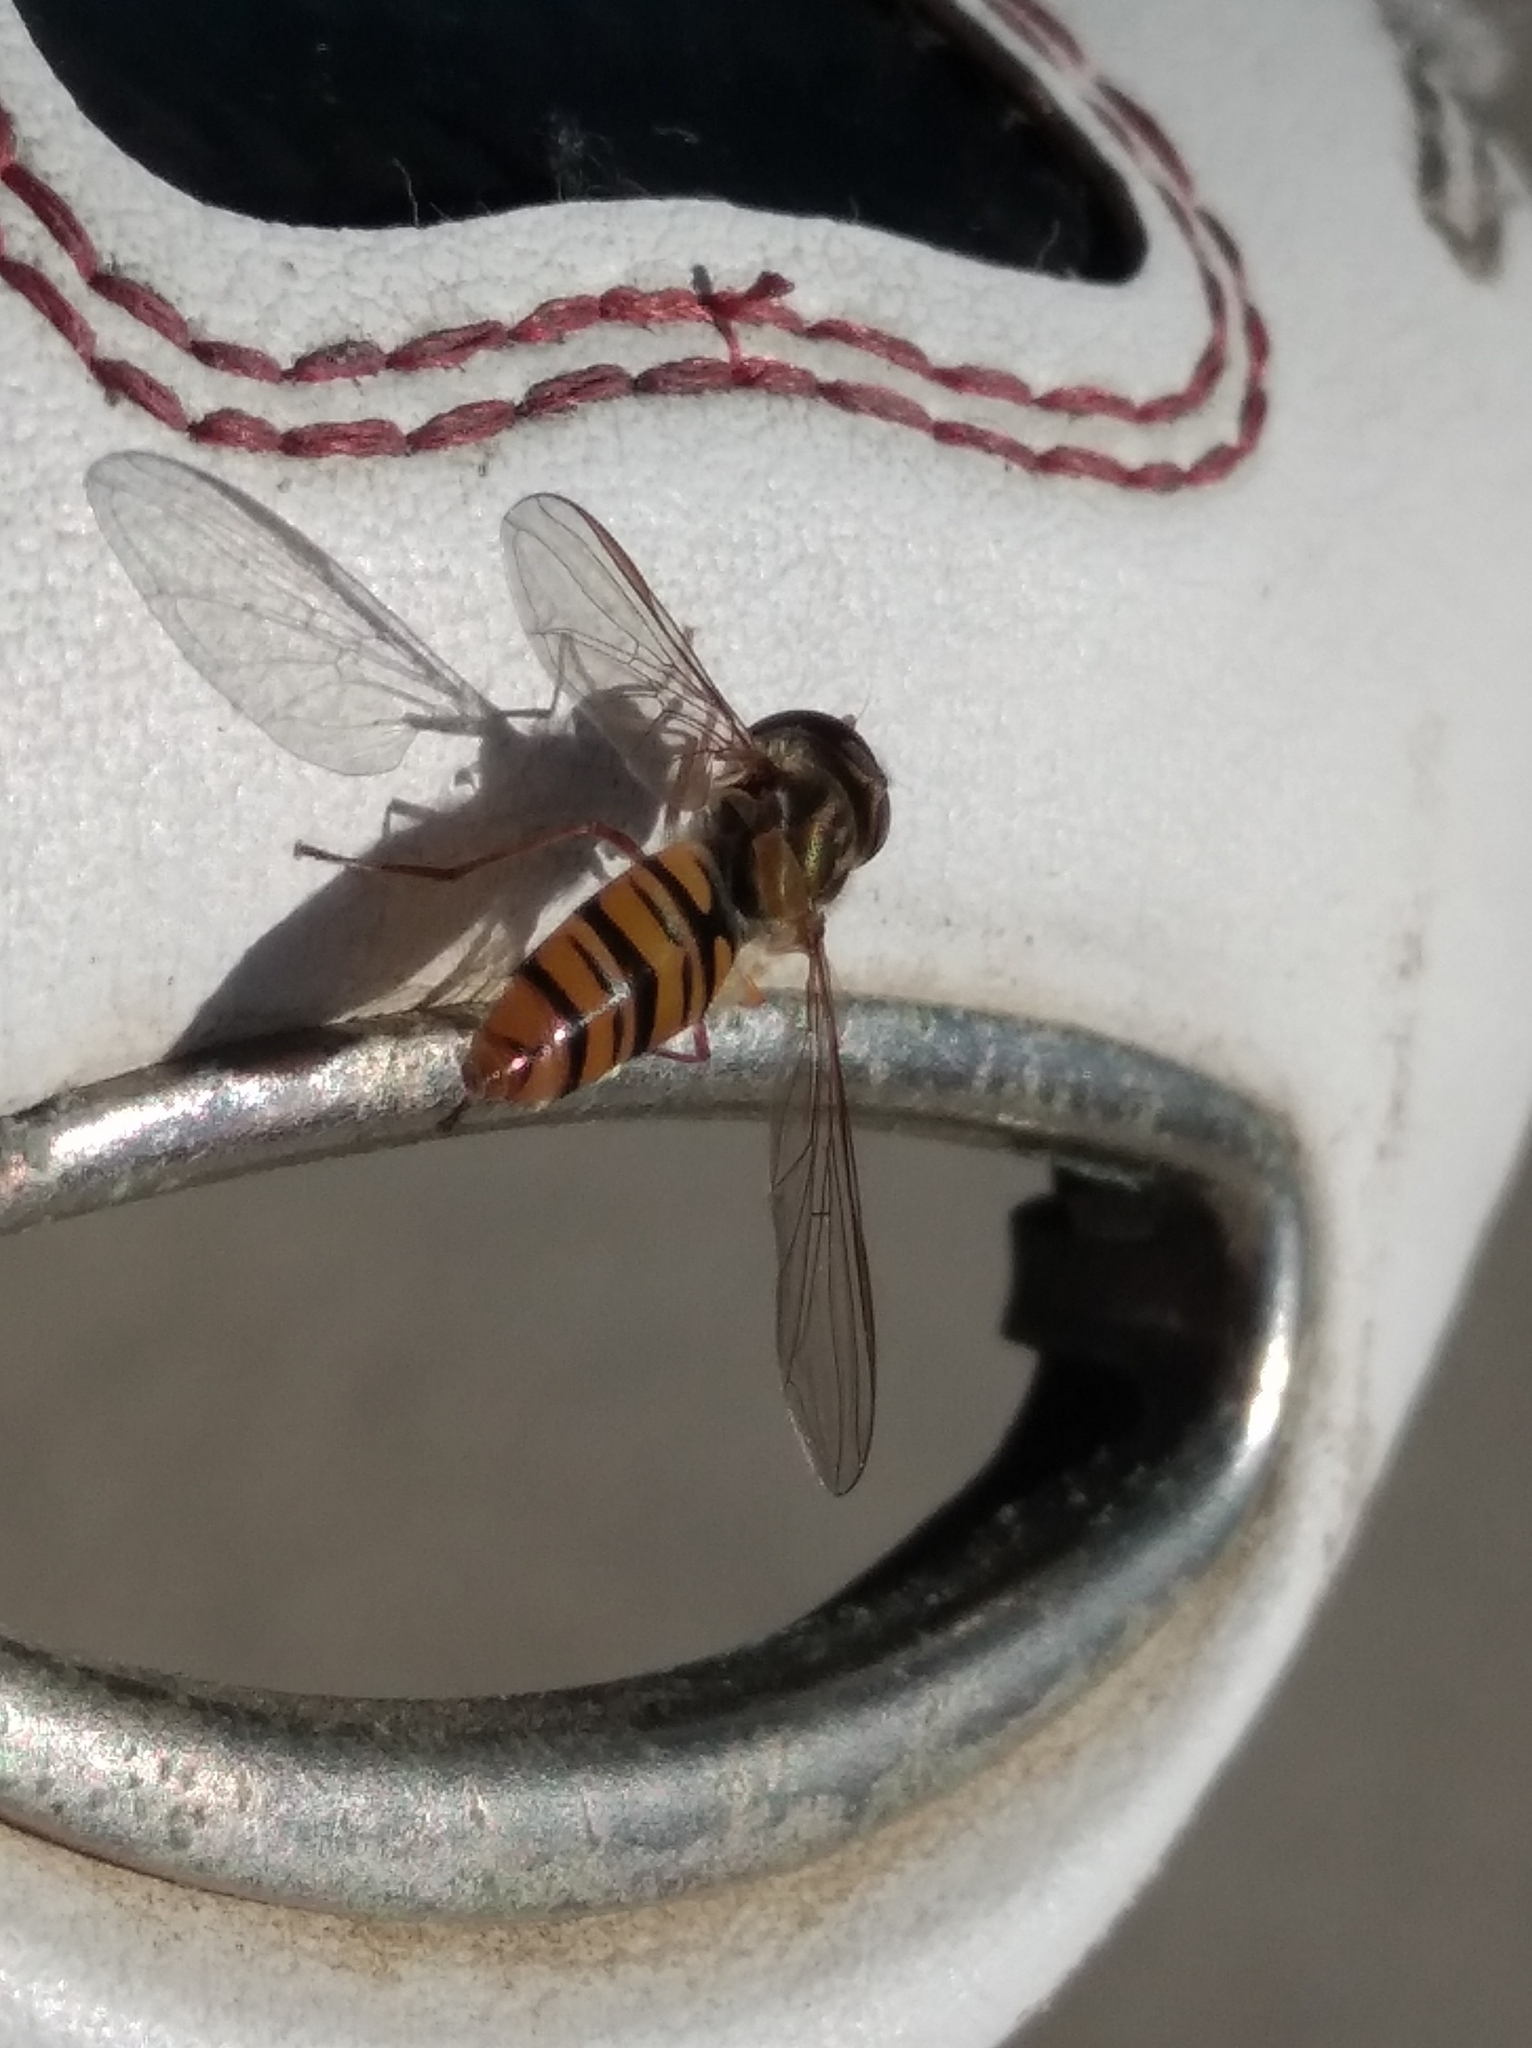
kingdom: Animalia
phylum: Arthropoda
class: Insecta
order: Diptera
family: Syrphidae
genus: Episyrphus
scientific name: Episyrphus balteatus
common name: Marmalade hoverfly
